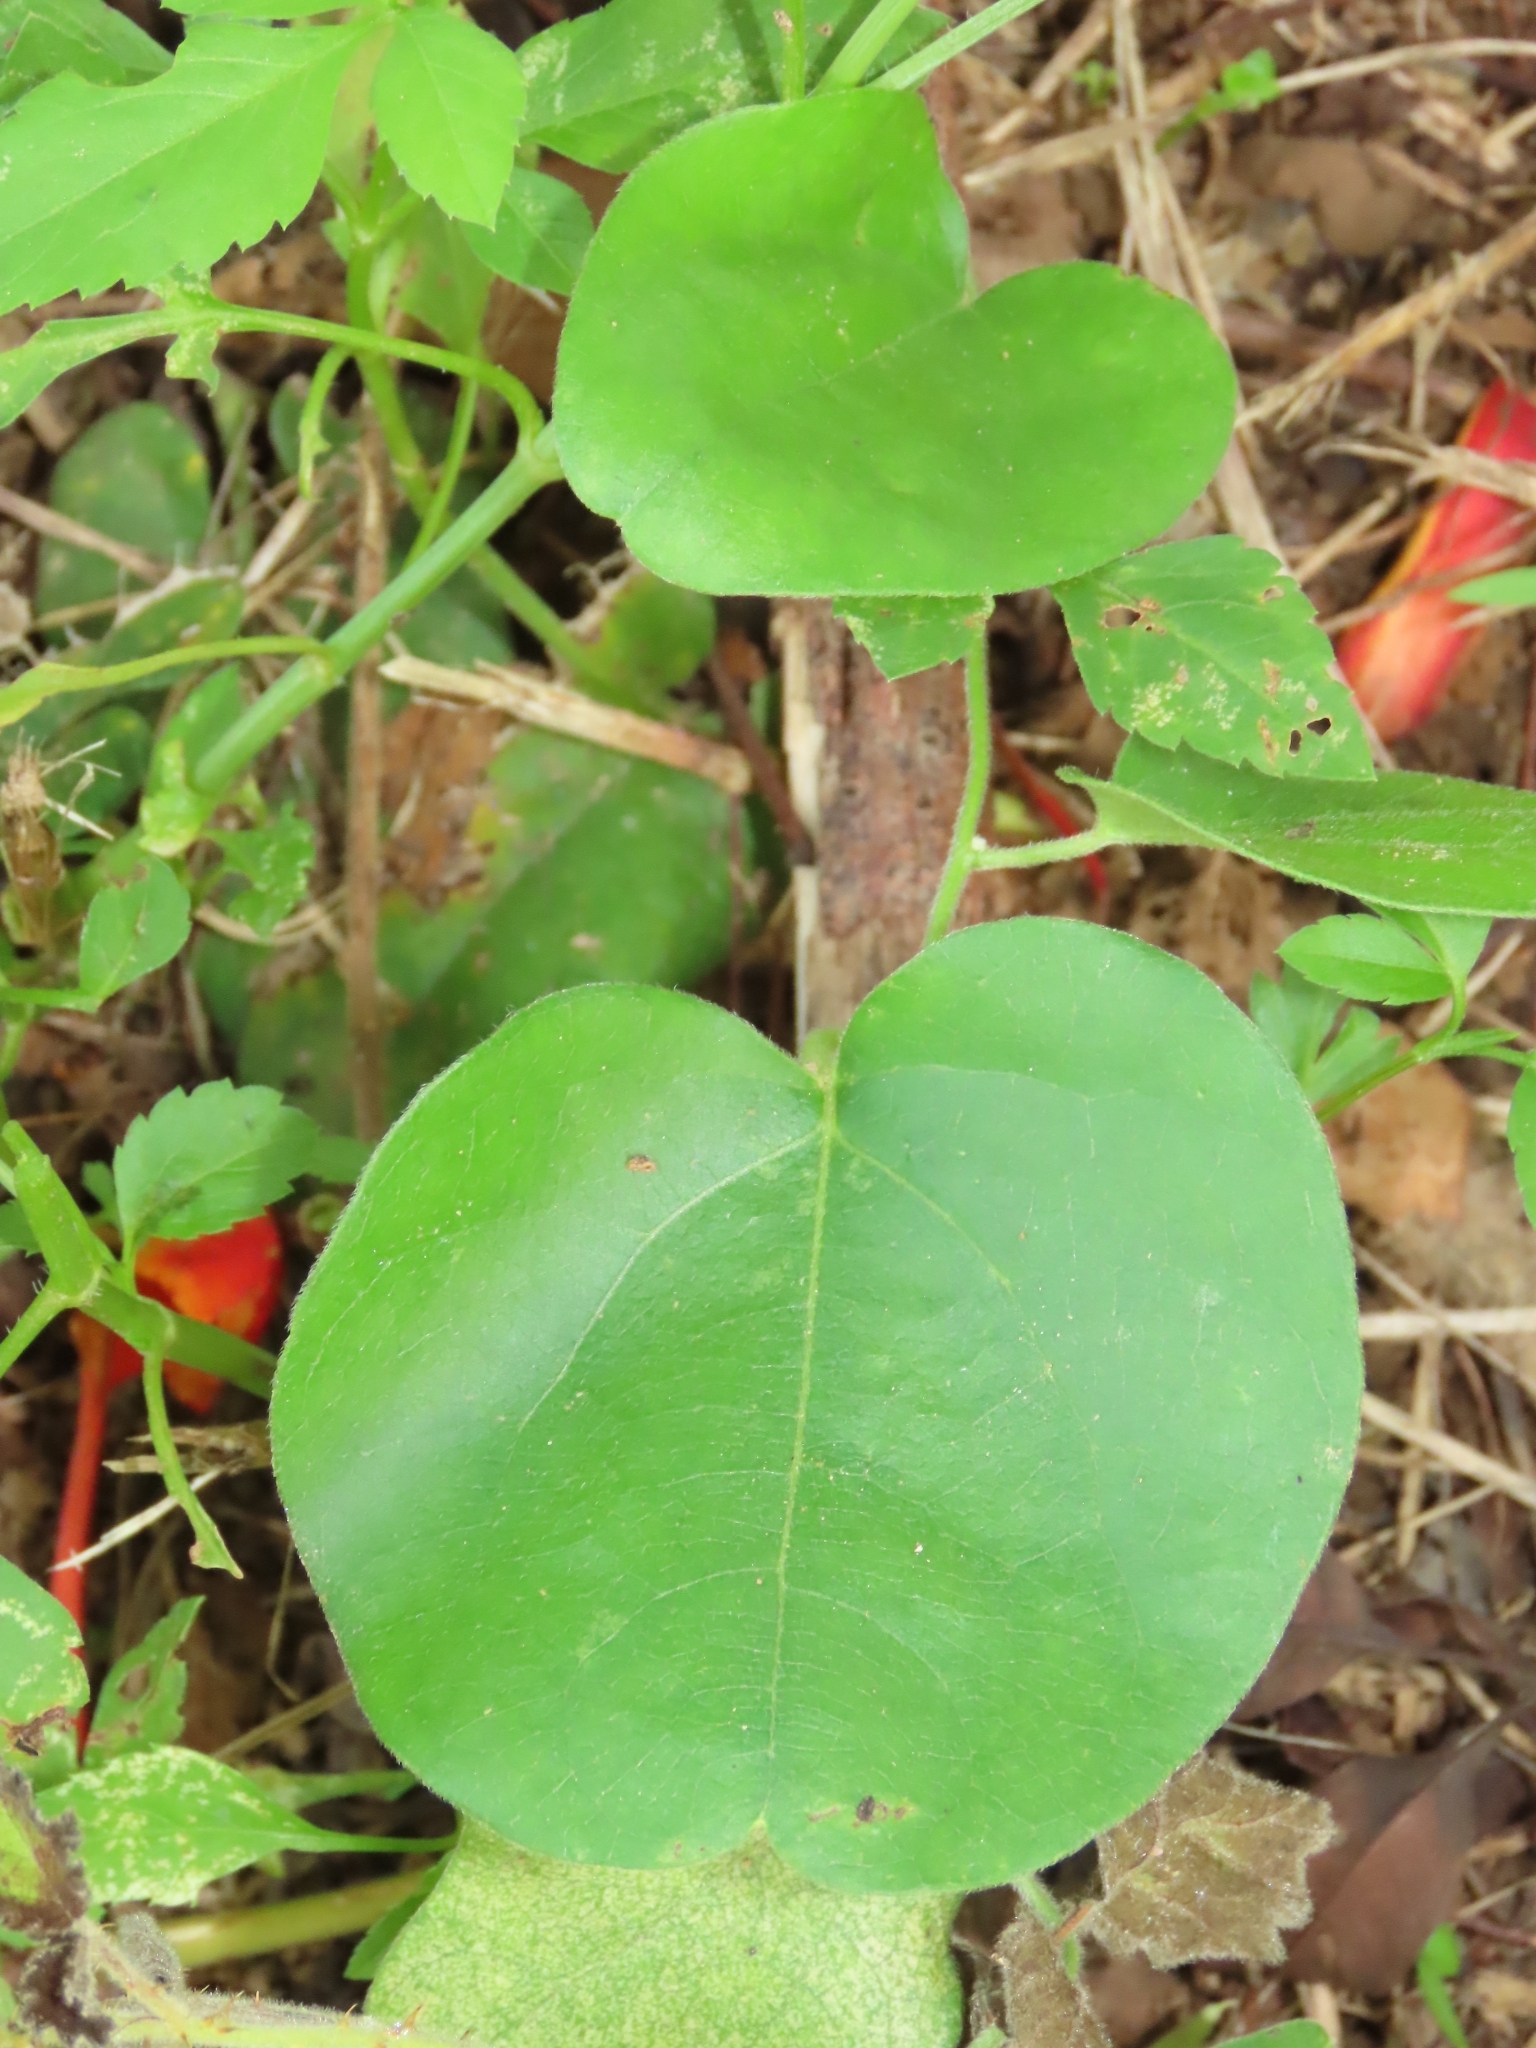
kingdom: Plantae
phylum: Tracheophyta
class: Magnoliopsida
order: Ranunculales
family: Menispermaceae
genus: Cocculus
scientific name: Cocculus orbiculatus
